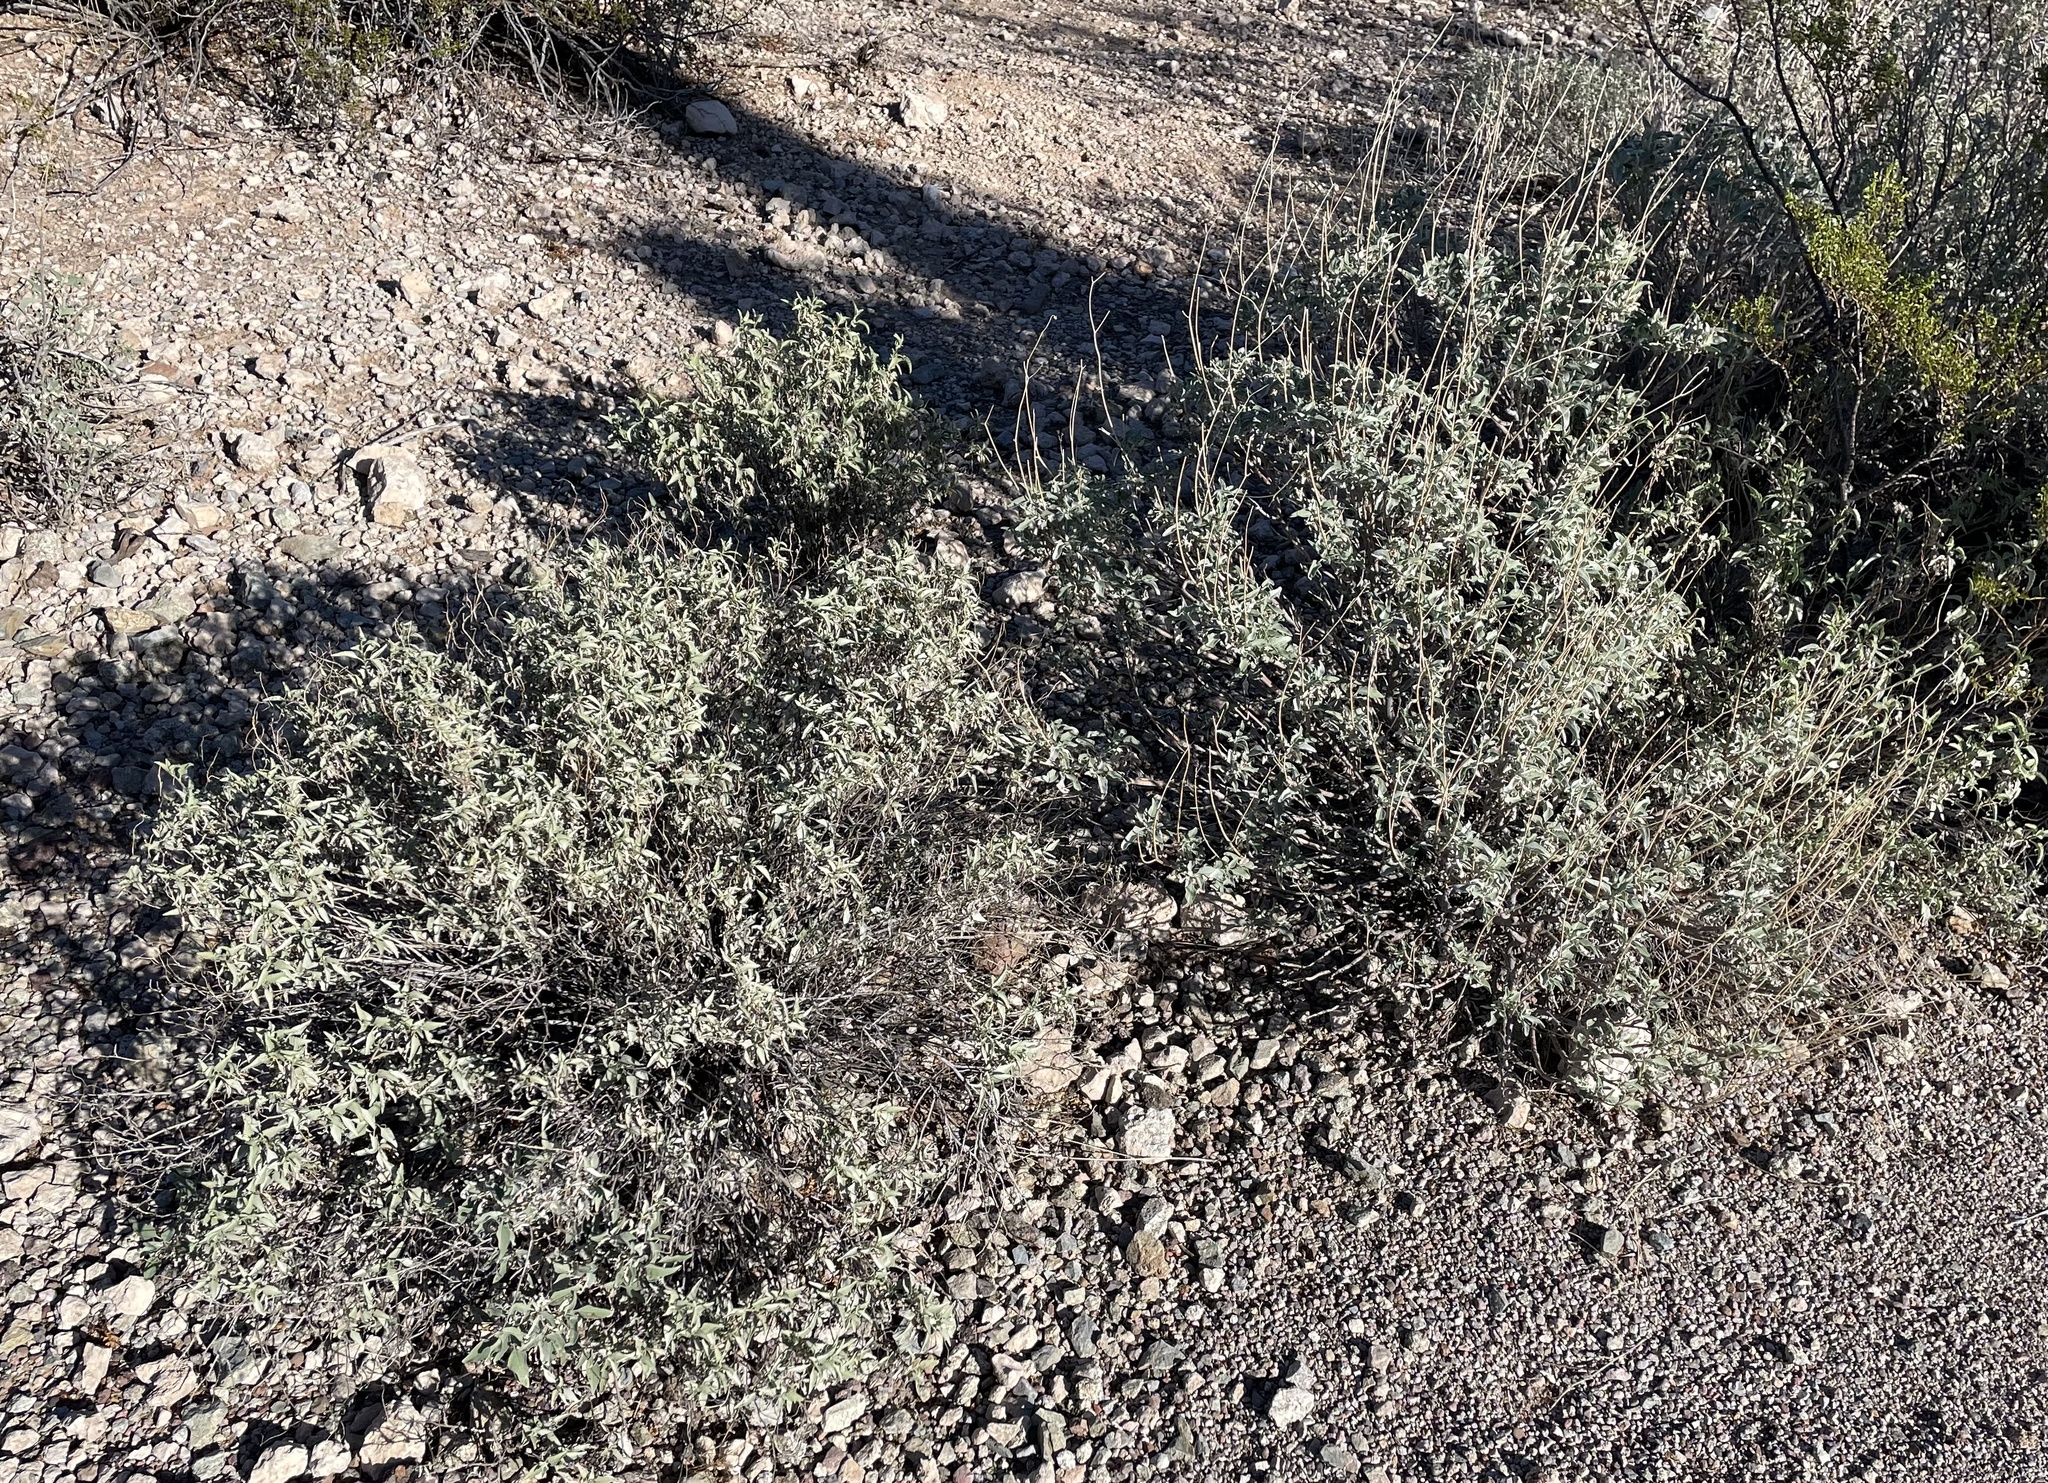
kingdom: Plantae
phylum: Tracheophyta
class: Magnoliopsida
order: Asterales
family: Asteraceae
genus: Ambrosia
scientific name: Ambrosia deltoidea
